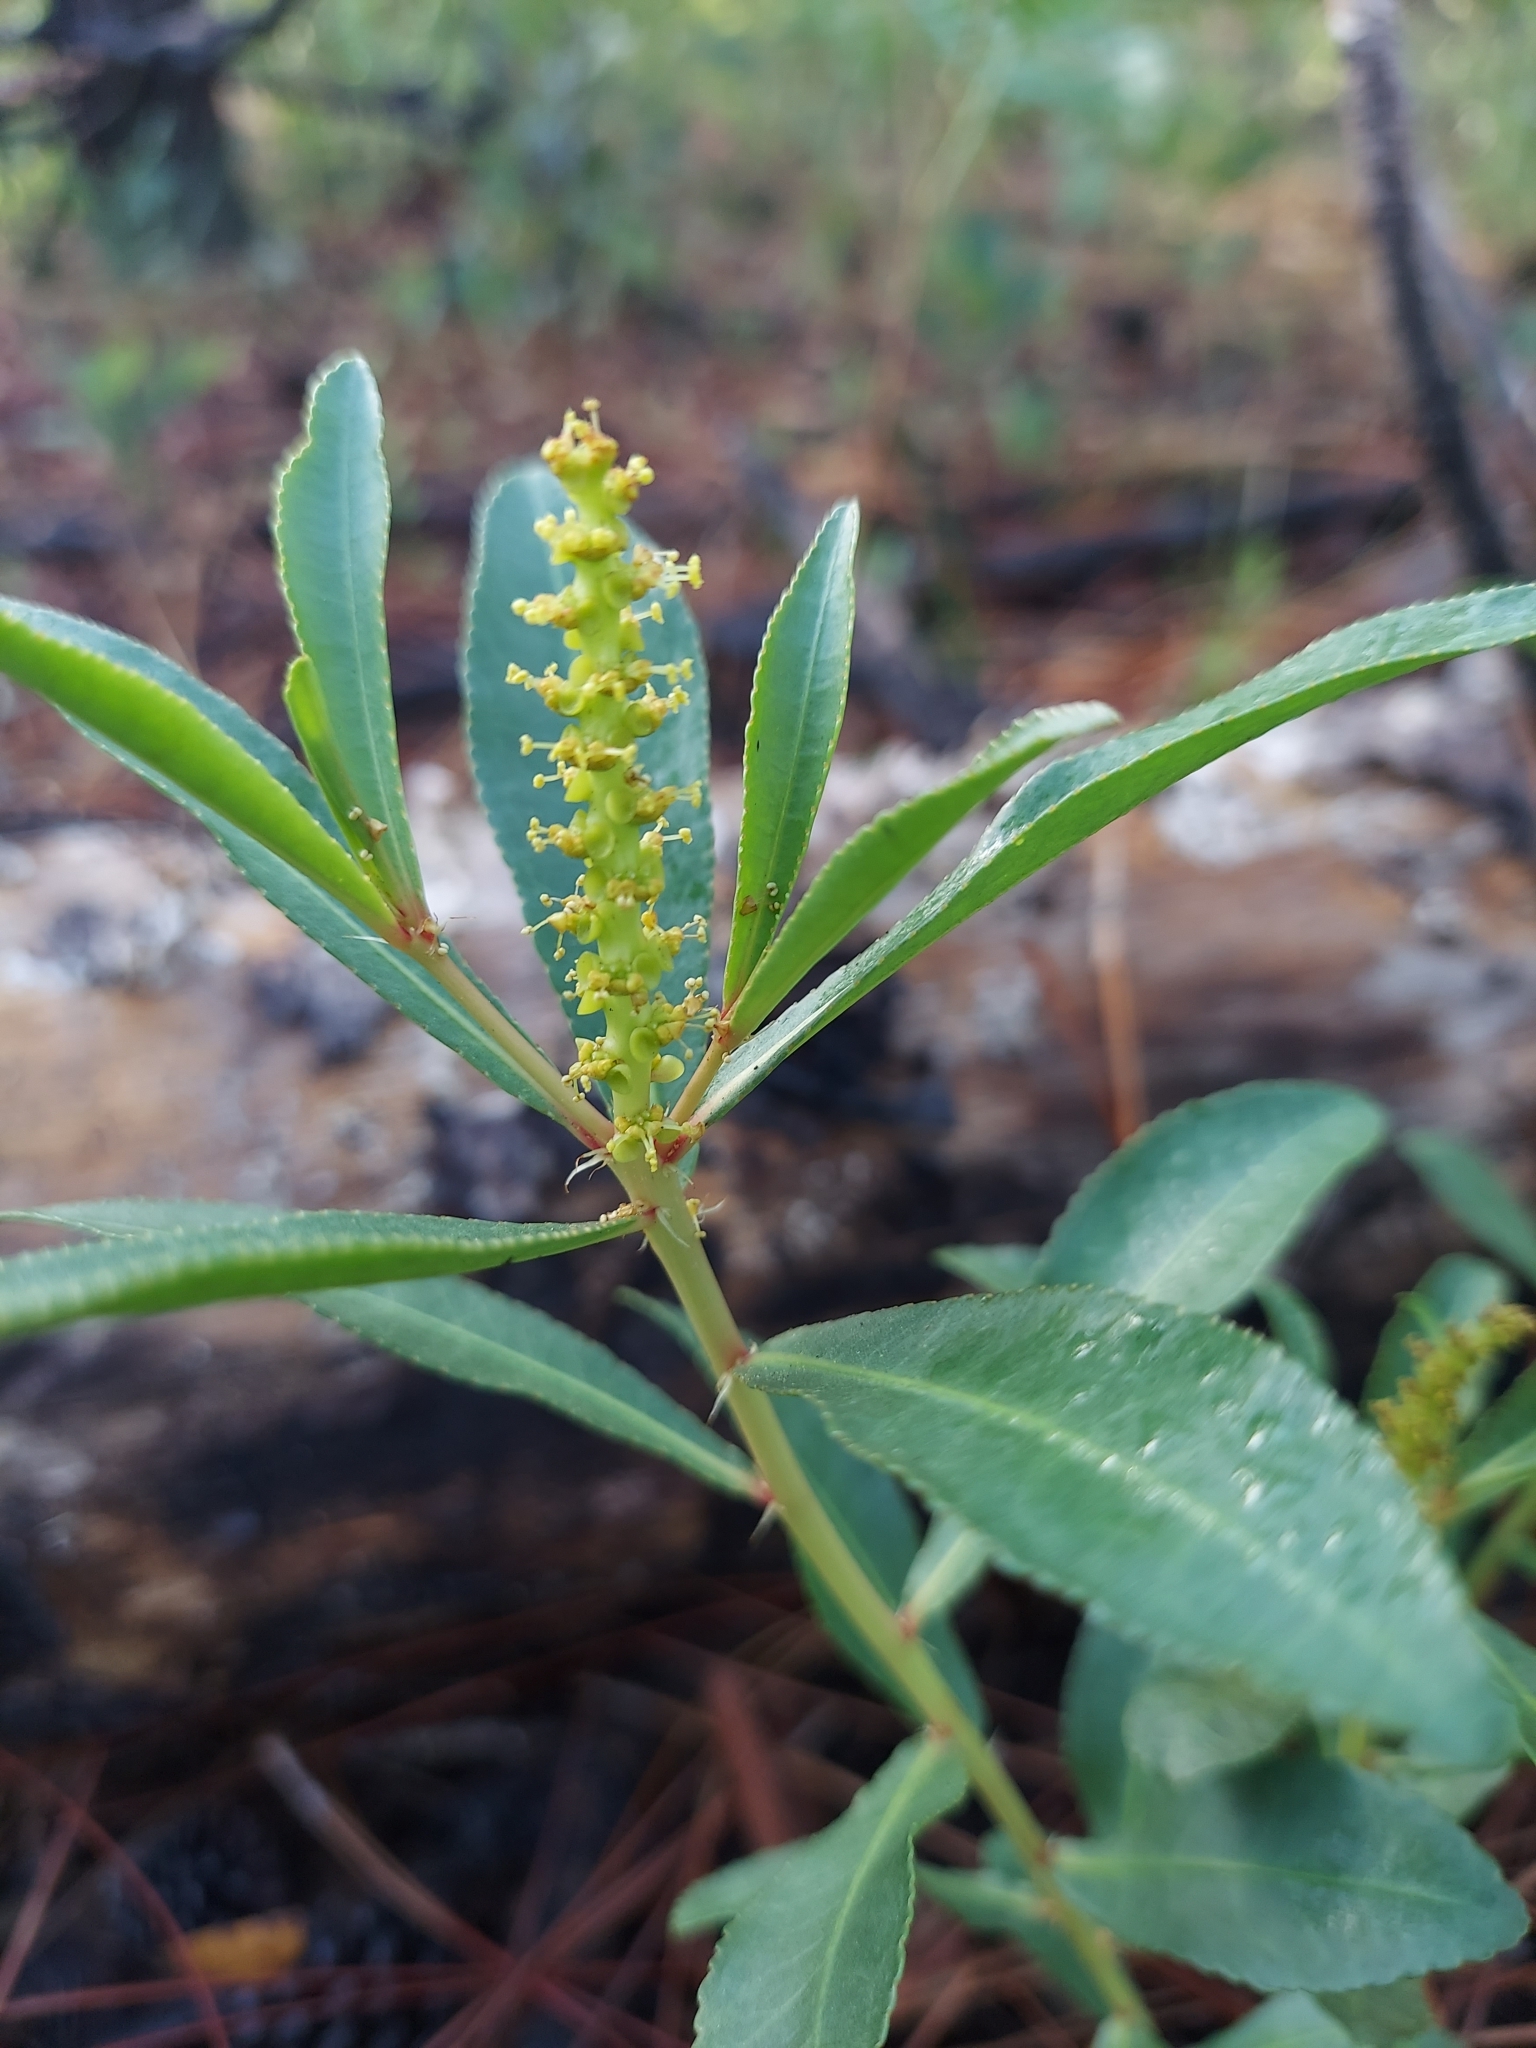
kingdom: Plantae
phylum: Tracheophyta
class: Magnoliopsida
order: Malpighiales
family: Euphorbiaceae
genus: Stillingia
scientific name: Stillingia sylvatica
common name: Queen's-delight
